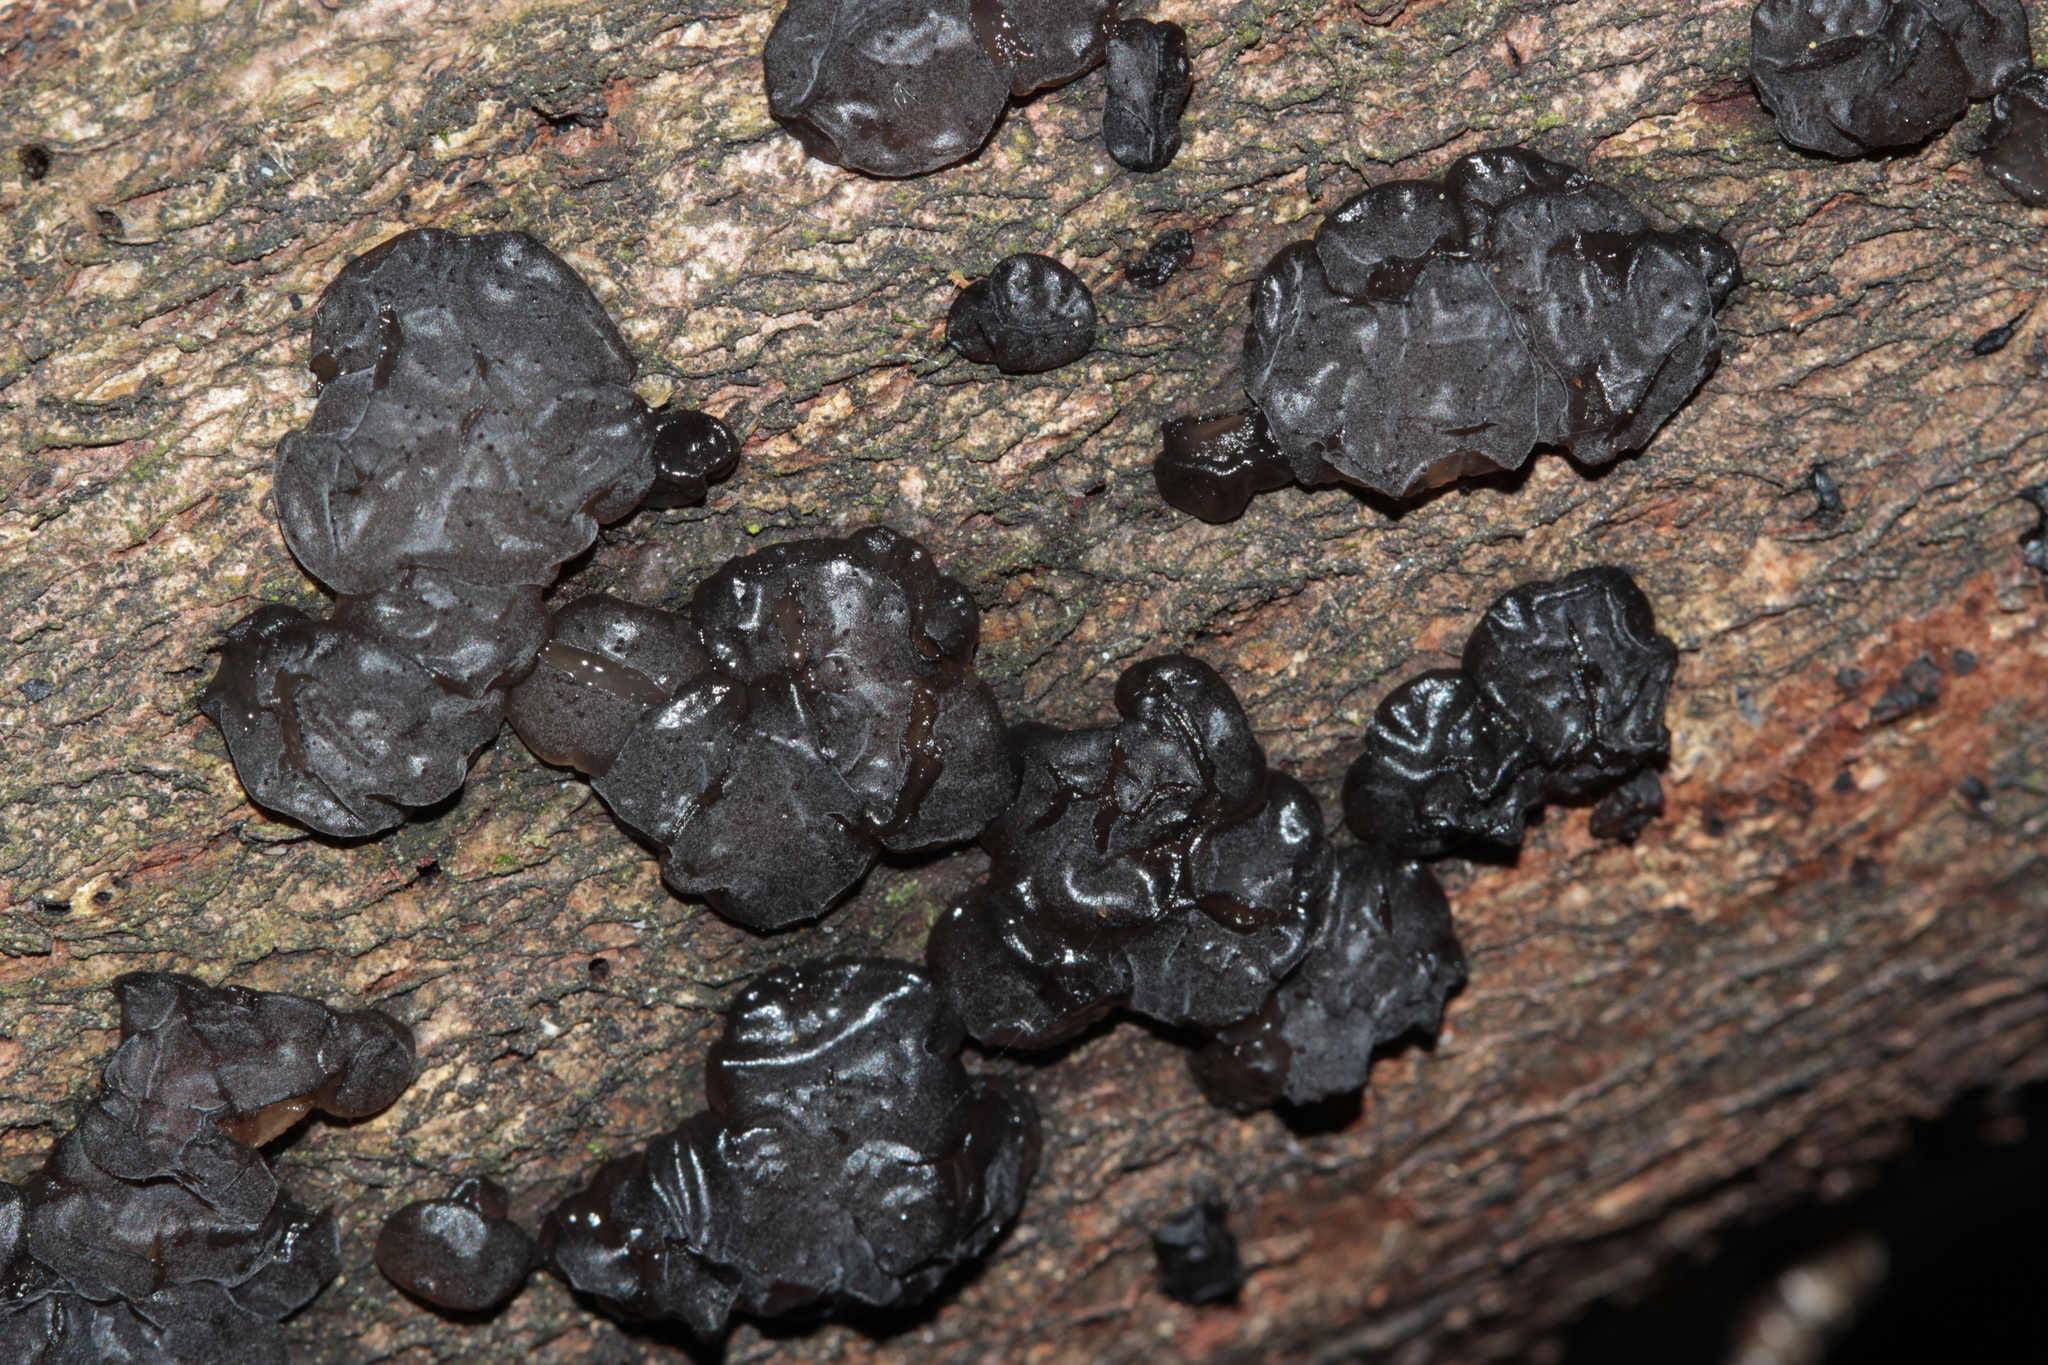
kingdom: Fungi
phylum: Basidiomycota
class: Agaricomycetes
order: Auriculariales
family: Auriculariaceae
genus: Exidia
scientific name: Exidia nigricans
